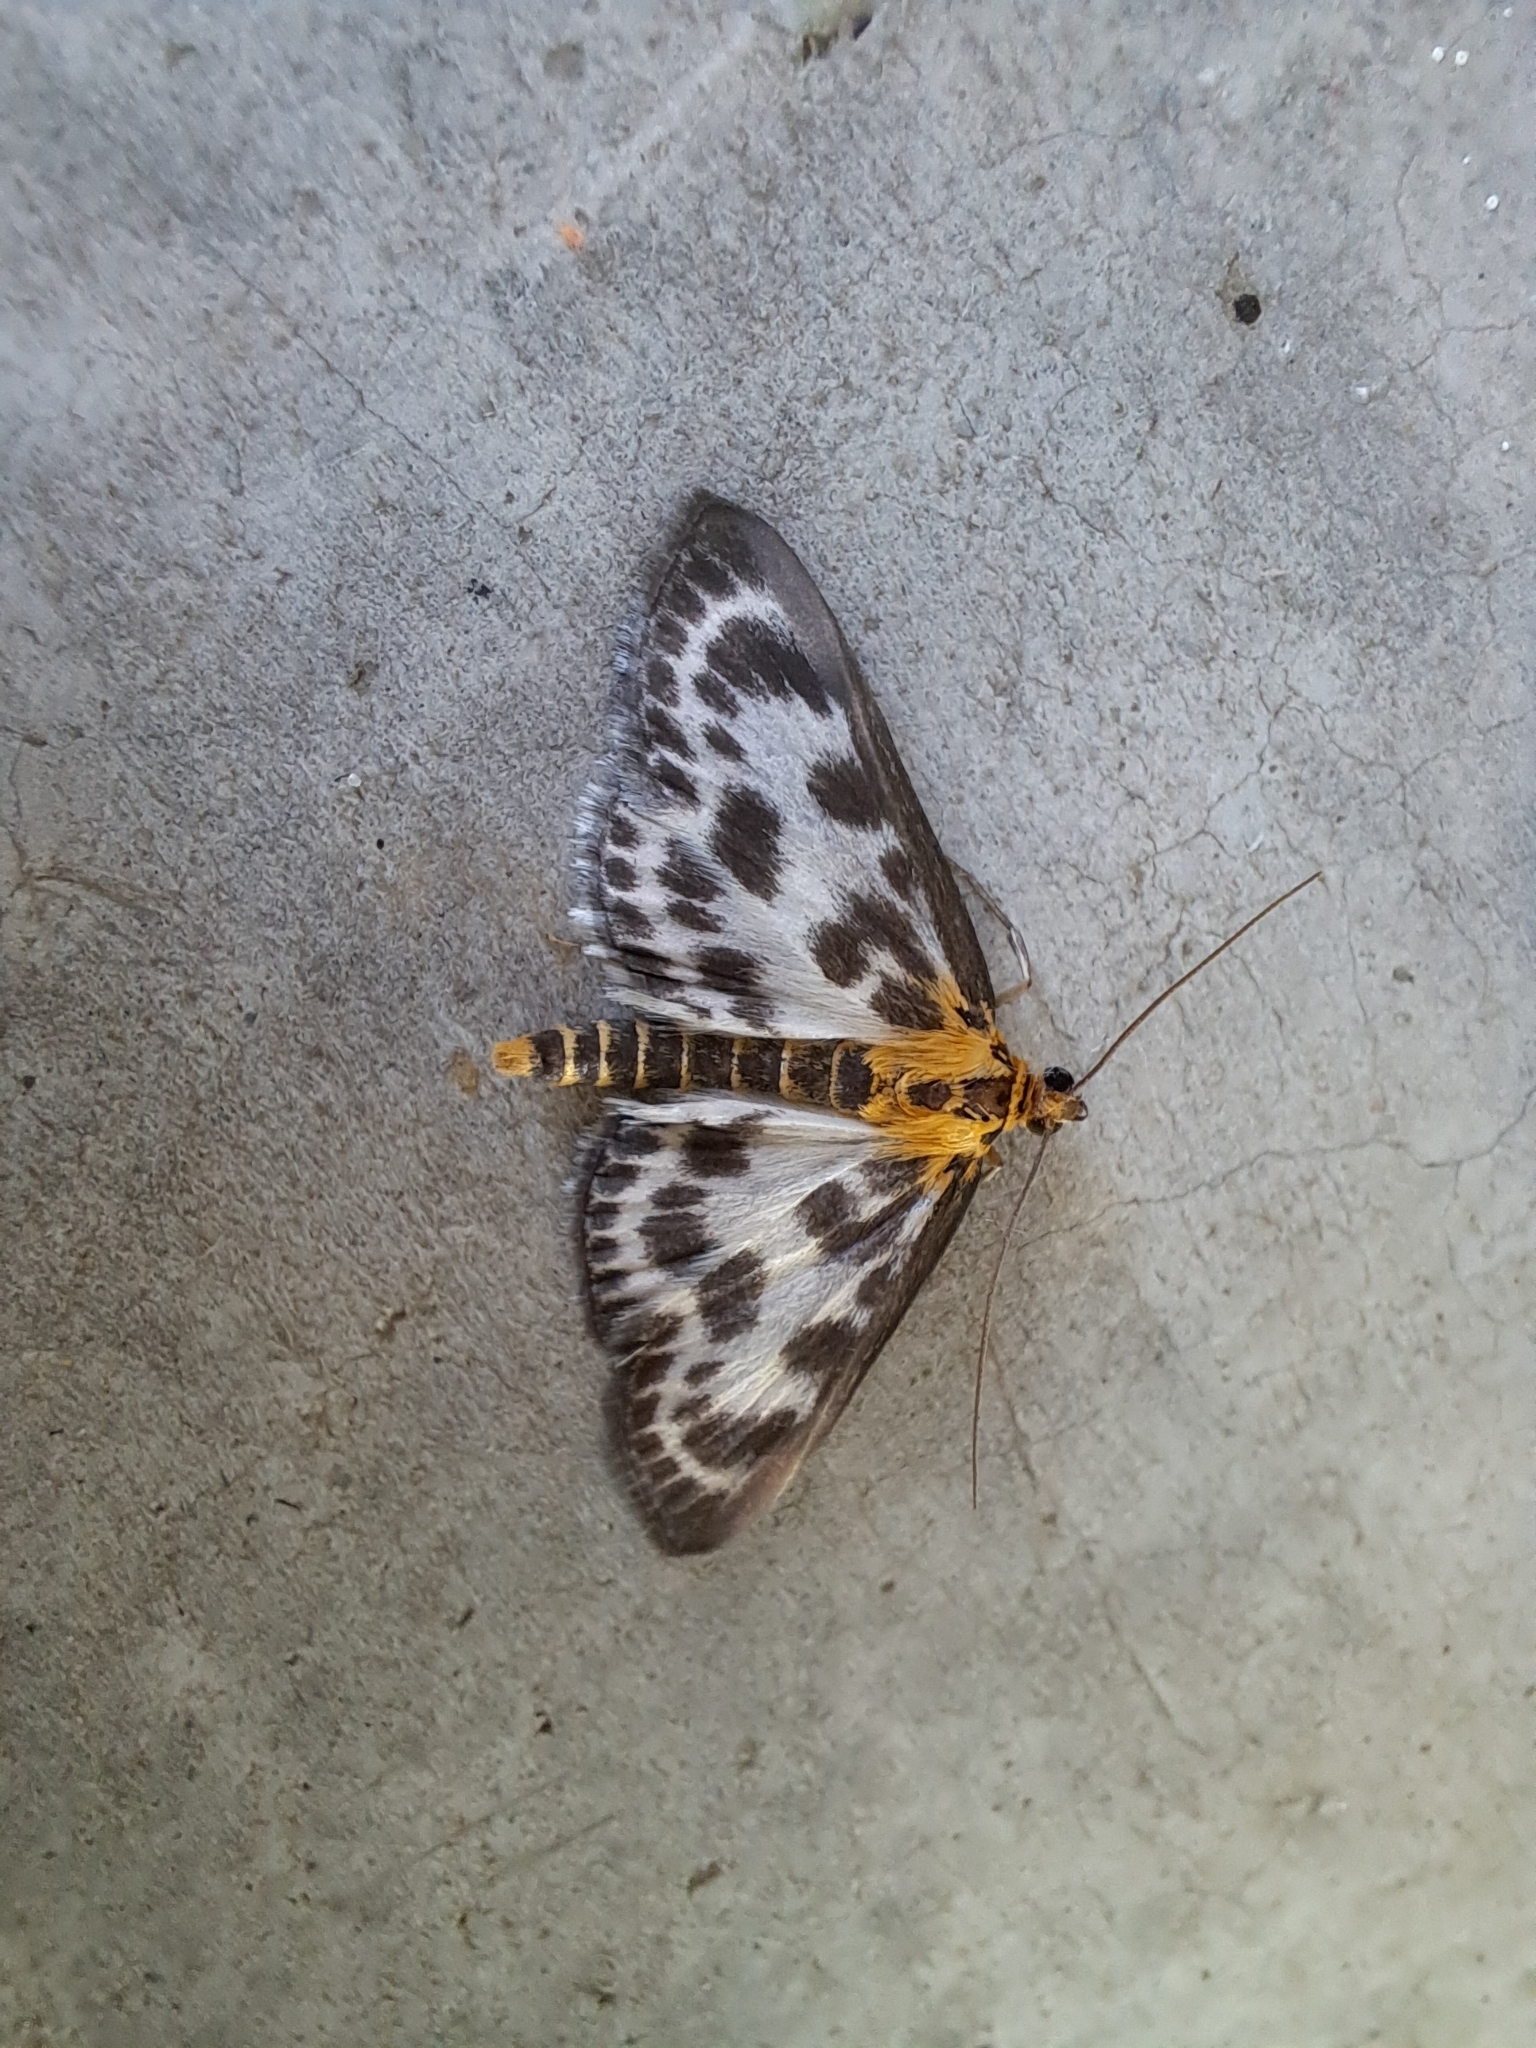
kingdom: Animalia
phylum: Arthropoda
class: Insecta
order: Lepidoptera
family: Crambidae
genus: Anania
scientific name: Anania hortulata
